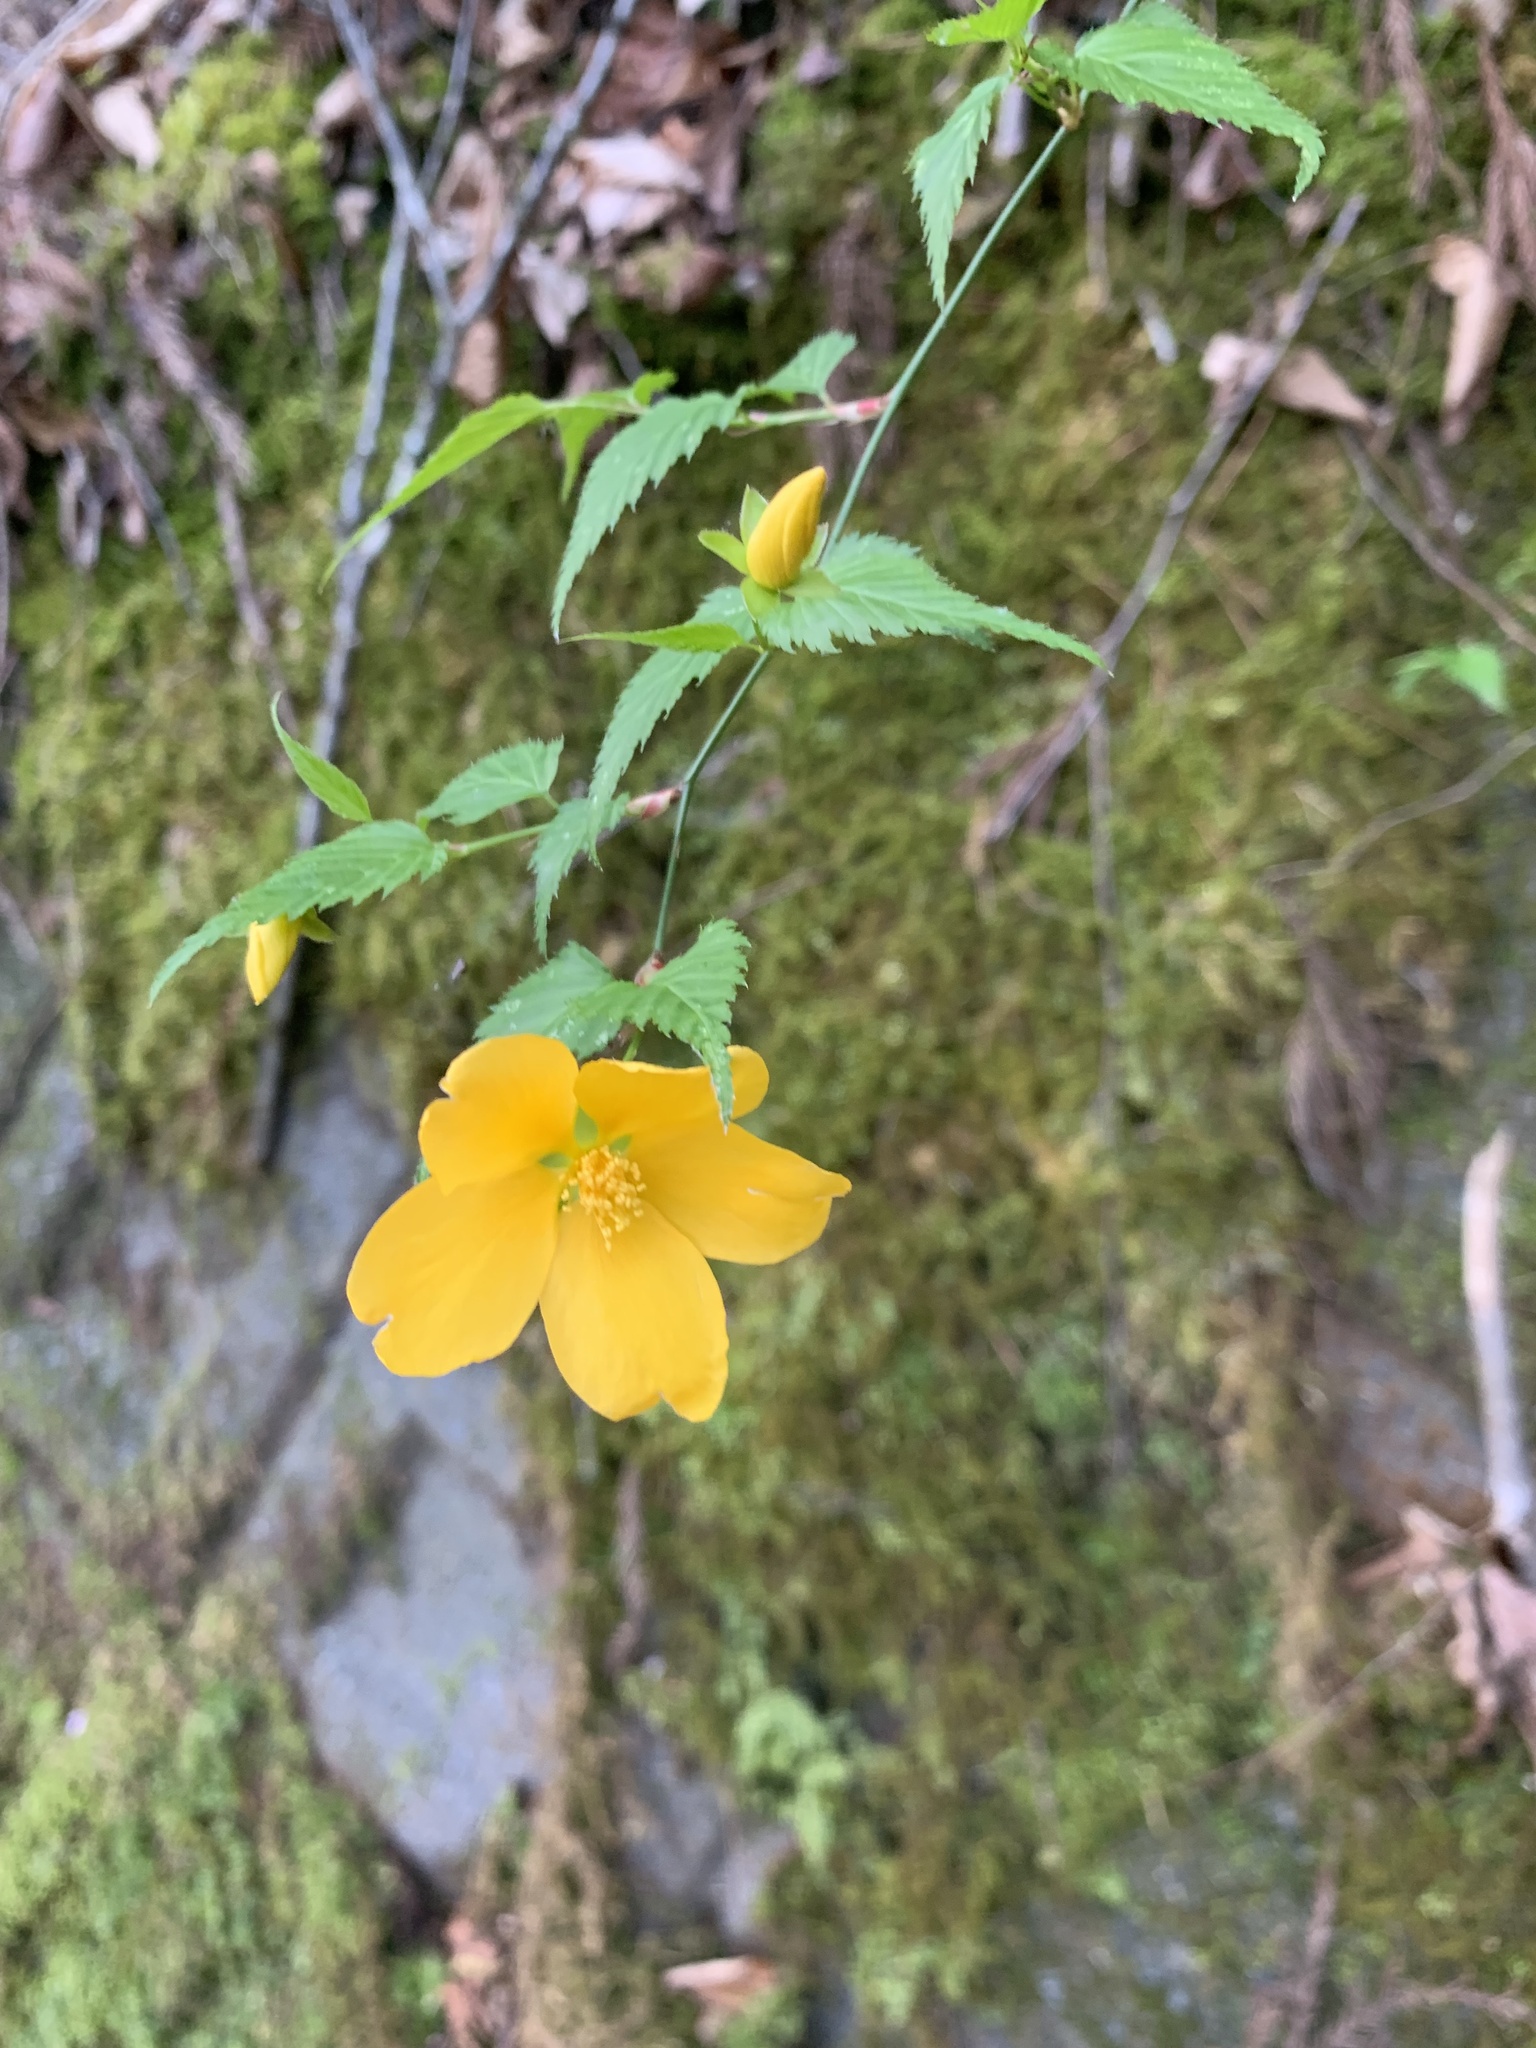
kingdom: Plantae
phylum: Tracheophyta
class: Magnoliopsida
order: Rosales
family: Rosaceae
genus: Kerria
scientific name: Kerria japonica
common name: Japanese kerria
